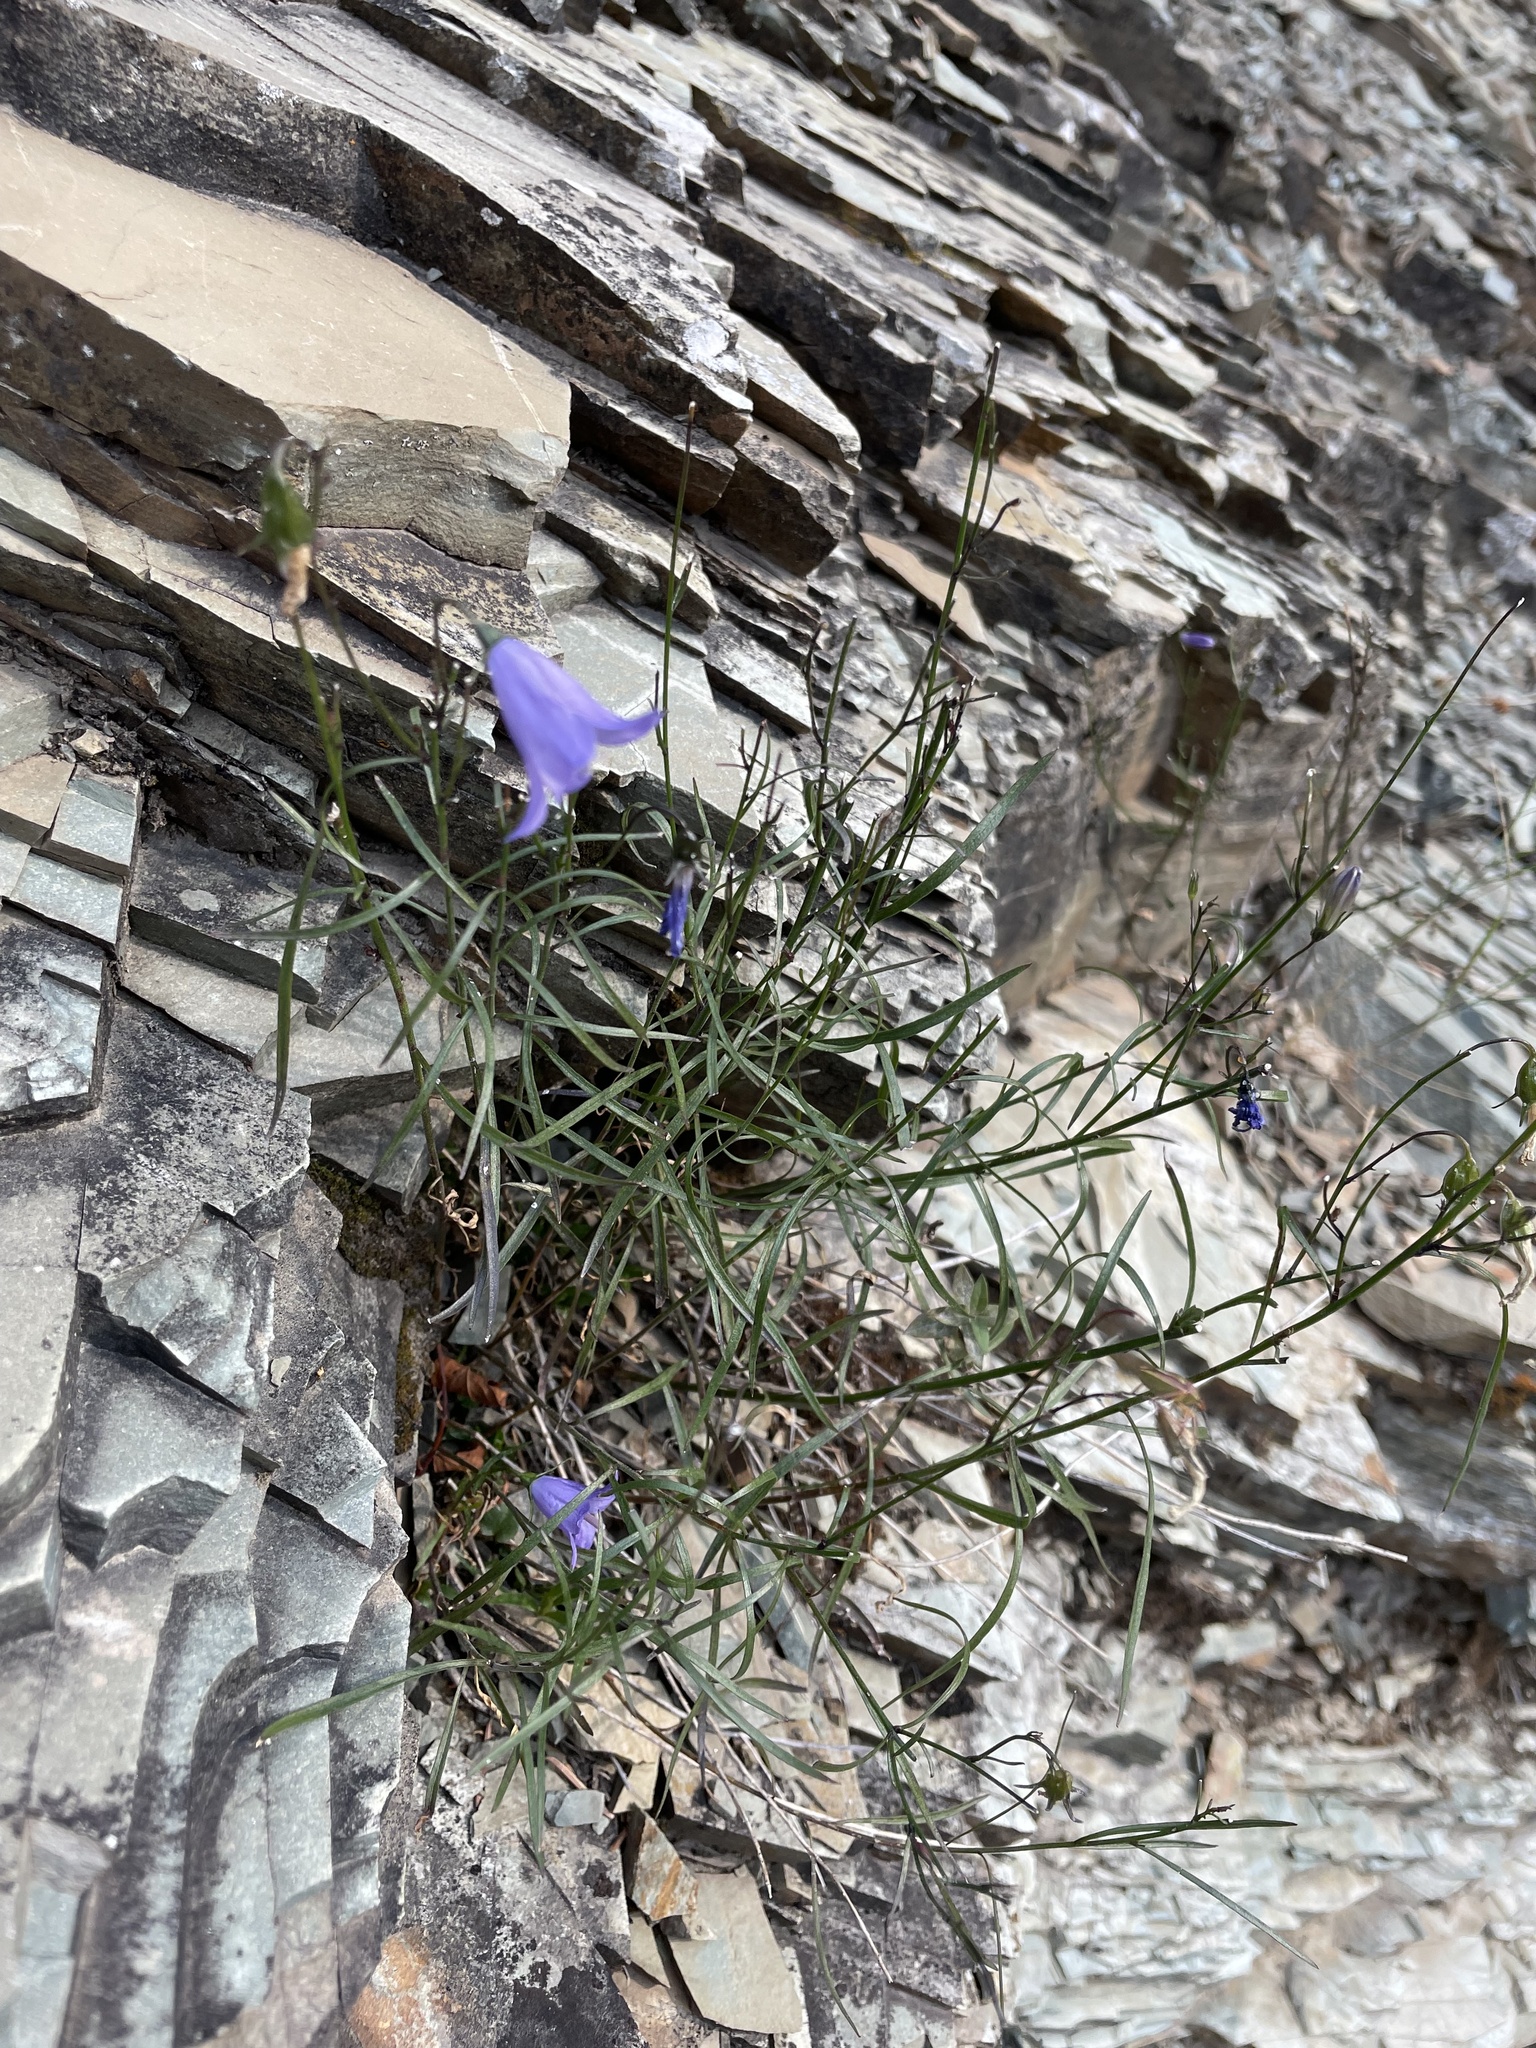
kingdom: Plantae
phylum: Tracheophyta
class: Magnoliopsida
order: Asterales
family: Campanulaceae
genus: Campanula
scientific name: Campanula alaskana
